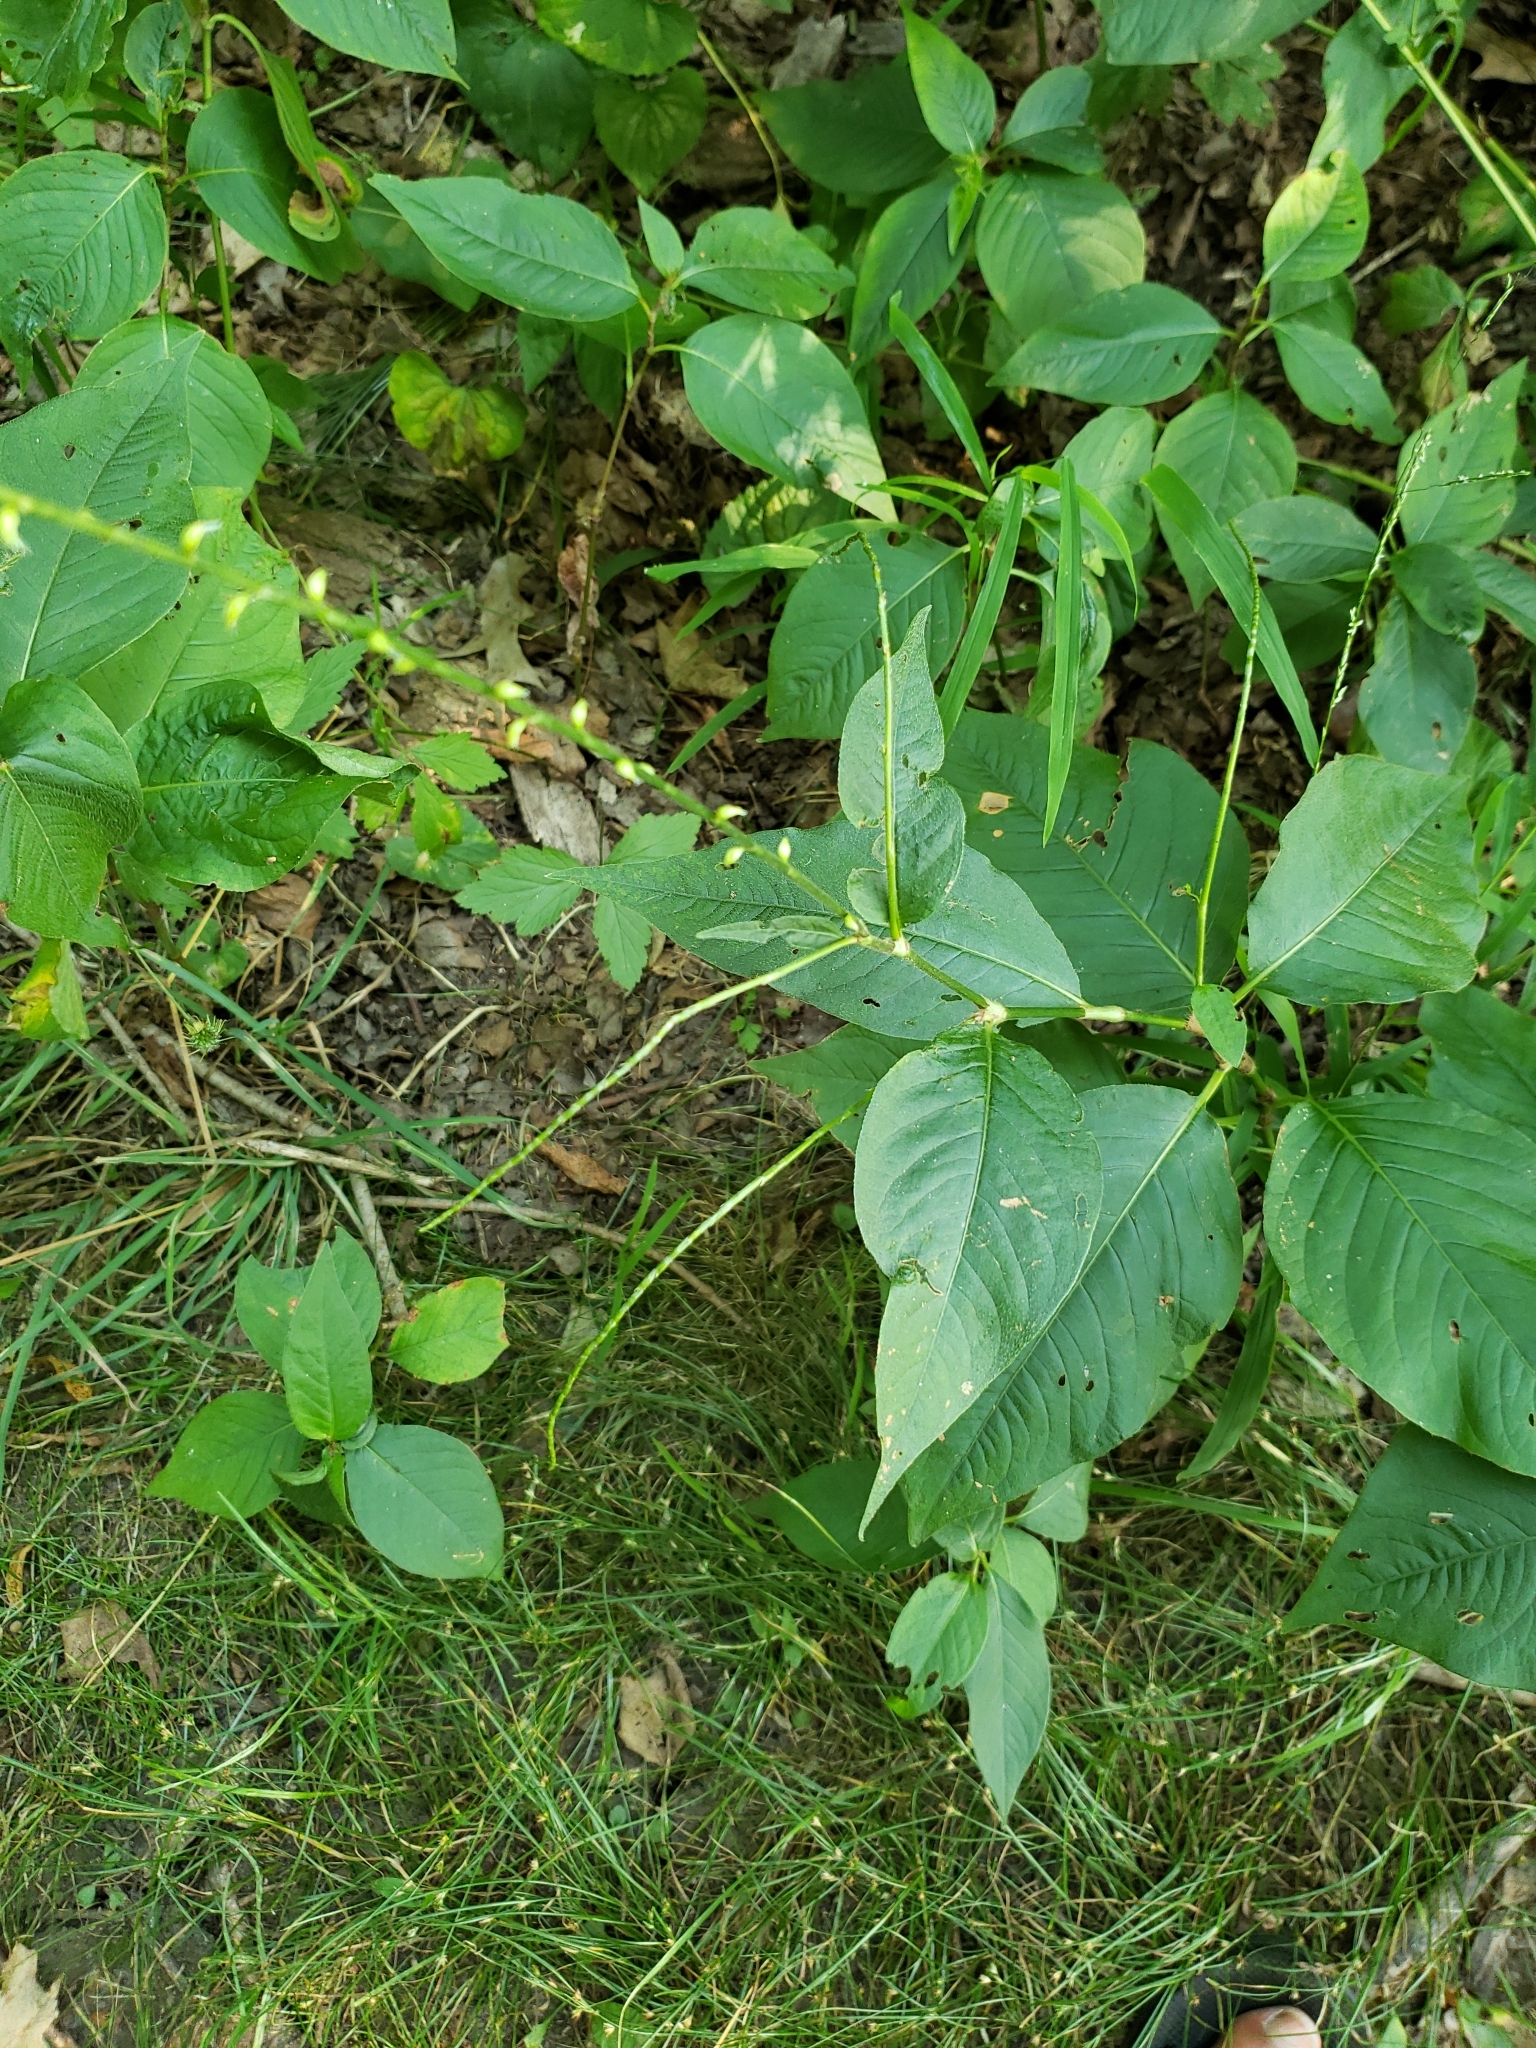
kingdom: Plantae
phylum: Tracheophyta
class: Magnoliopsida
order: Caryophyllales
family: Polygonaceae
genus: Persicaria
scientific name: Persicaria virginiana
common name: Jumpseed
